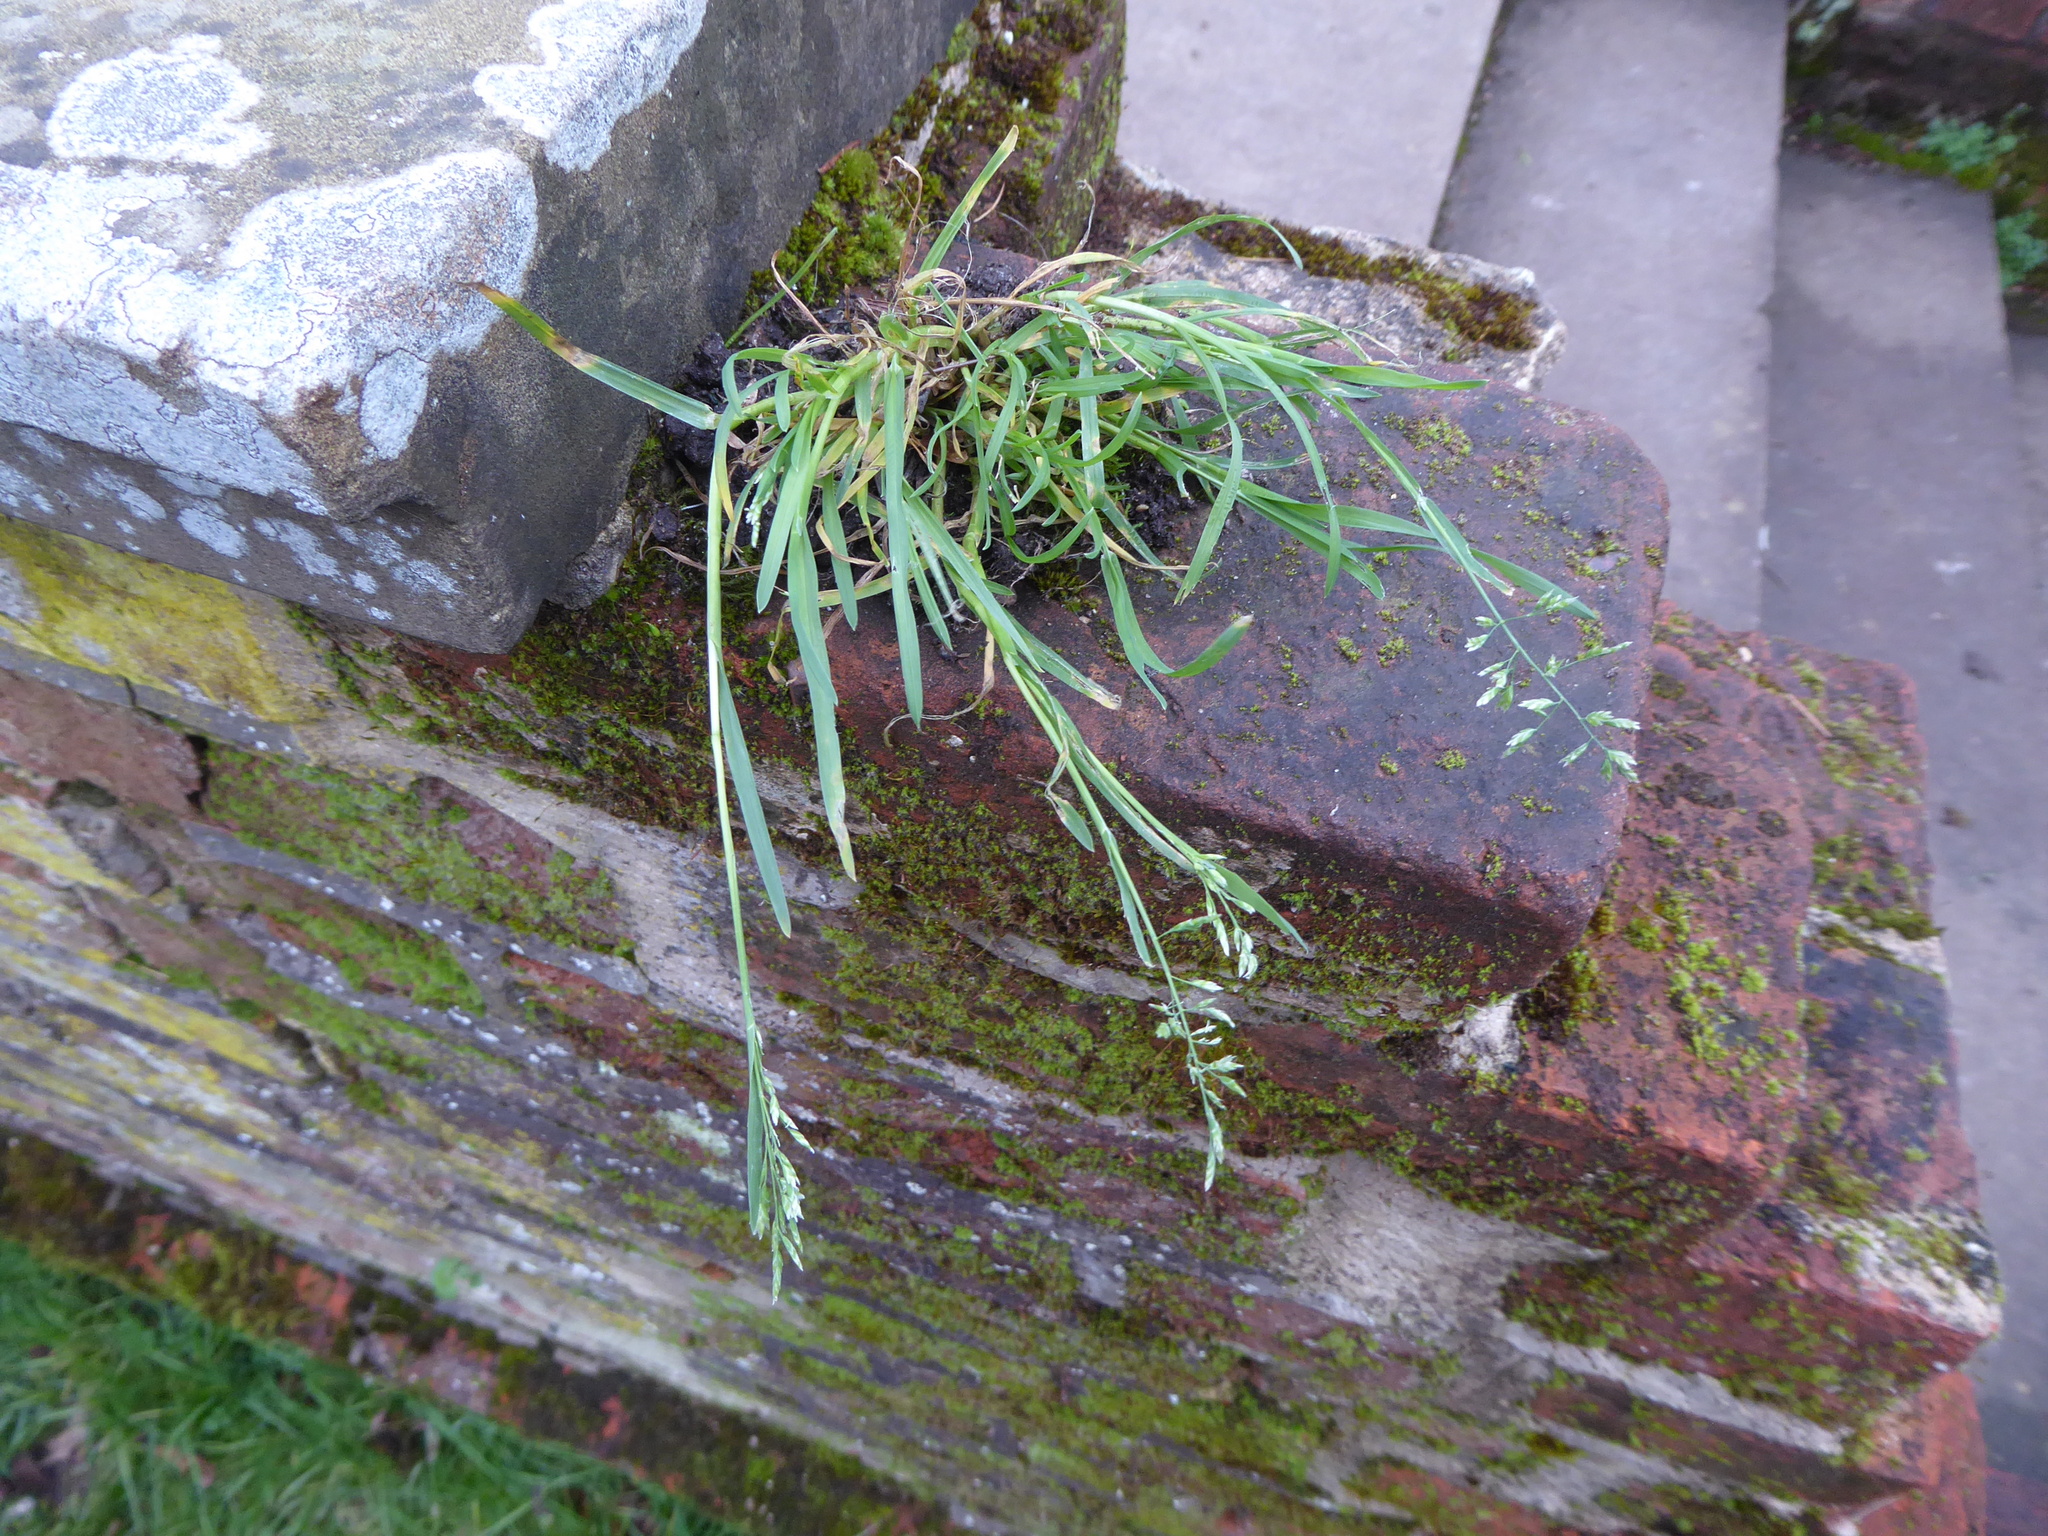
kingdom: Plantae
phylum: Tracheophyta
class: Liliopsida
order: Poales
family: Poaceae
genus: Poa
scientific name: Poa annua
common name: Annual bluegrass
